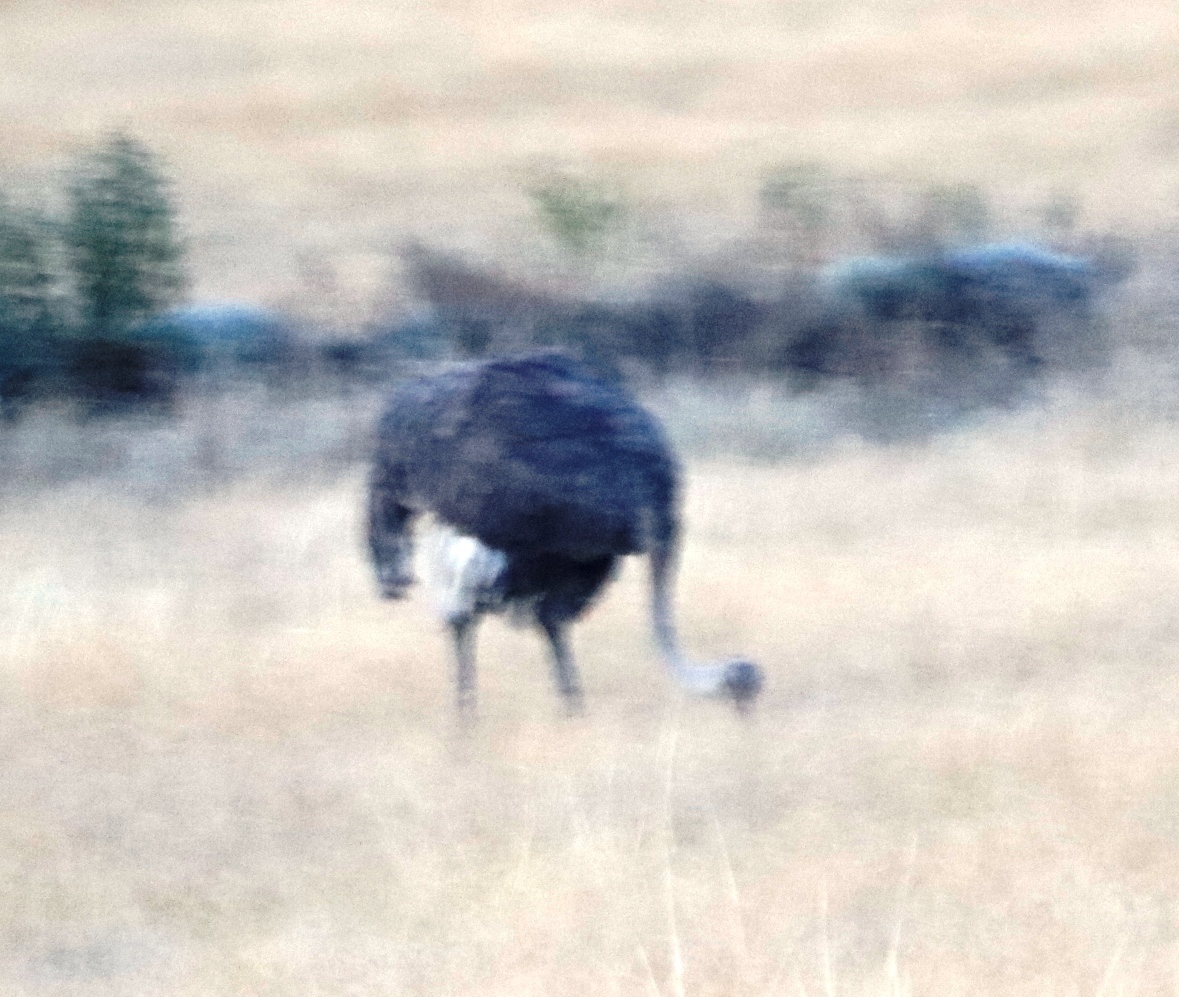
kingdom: Animalia
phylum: Chordata
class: Aves
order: Struthioniformes
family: Struthionidae
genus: Struthio
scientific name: Struthio camelus
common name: Common ostrich
